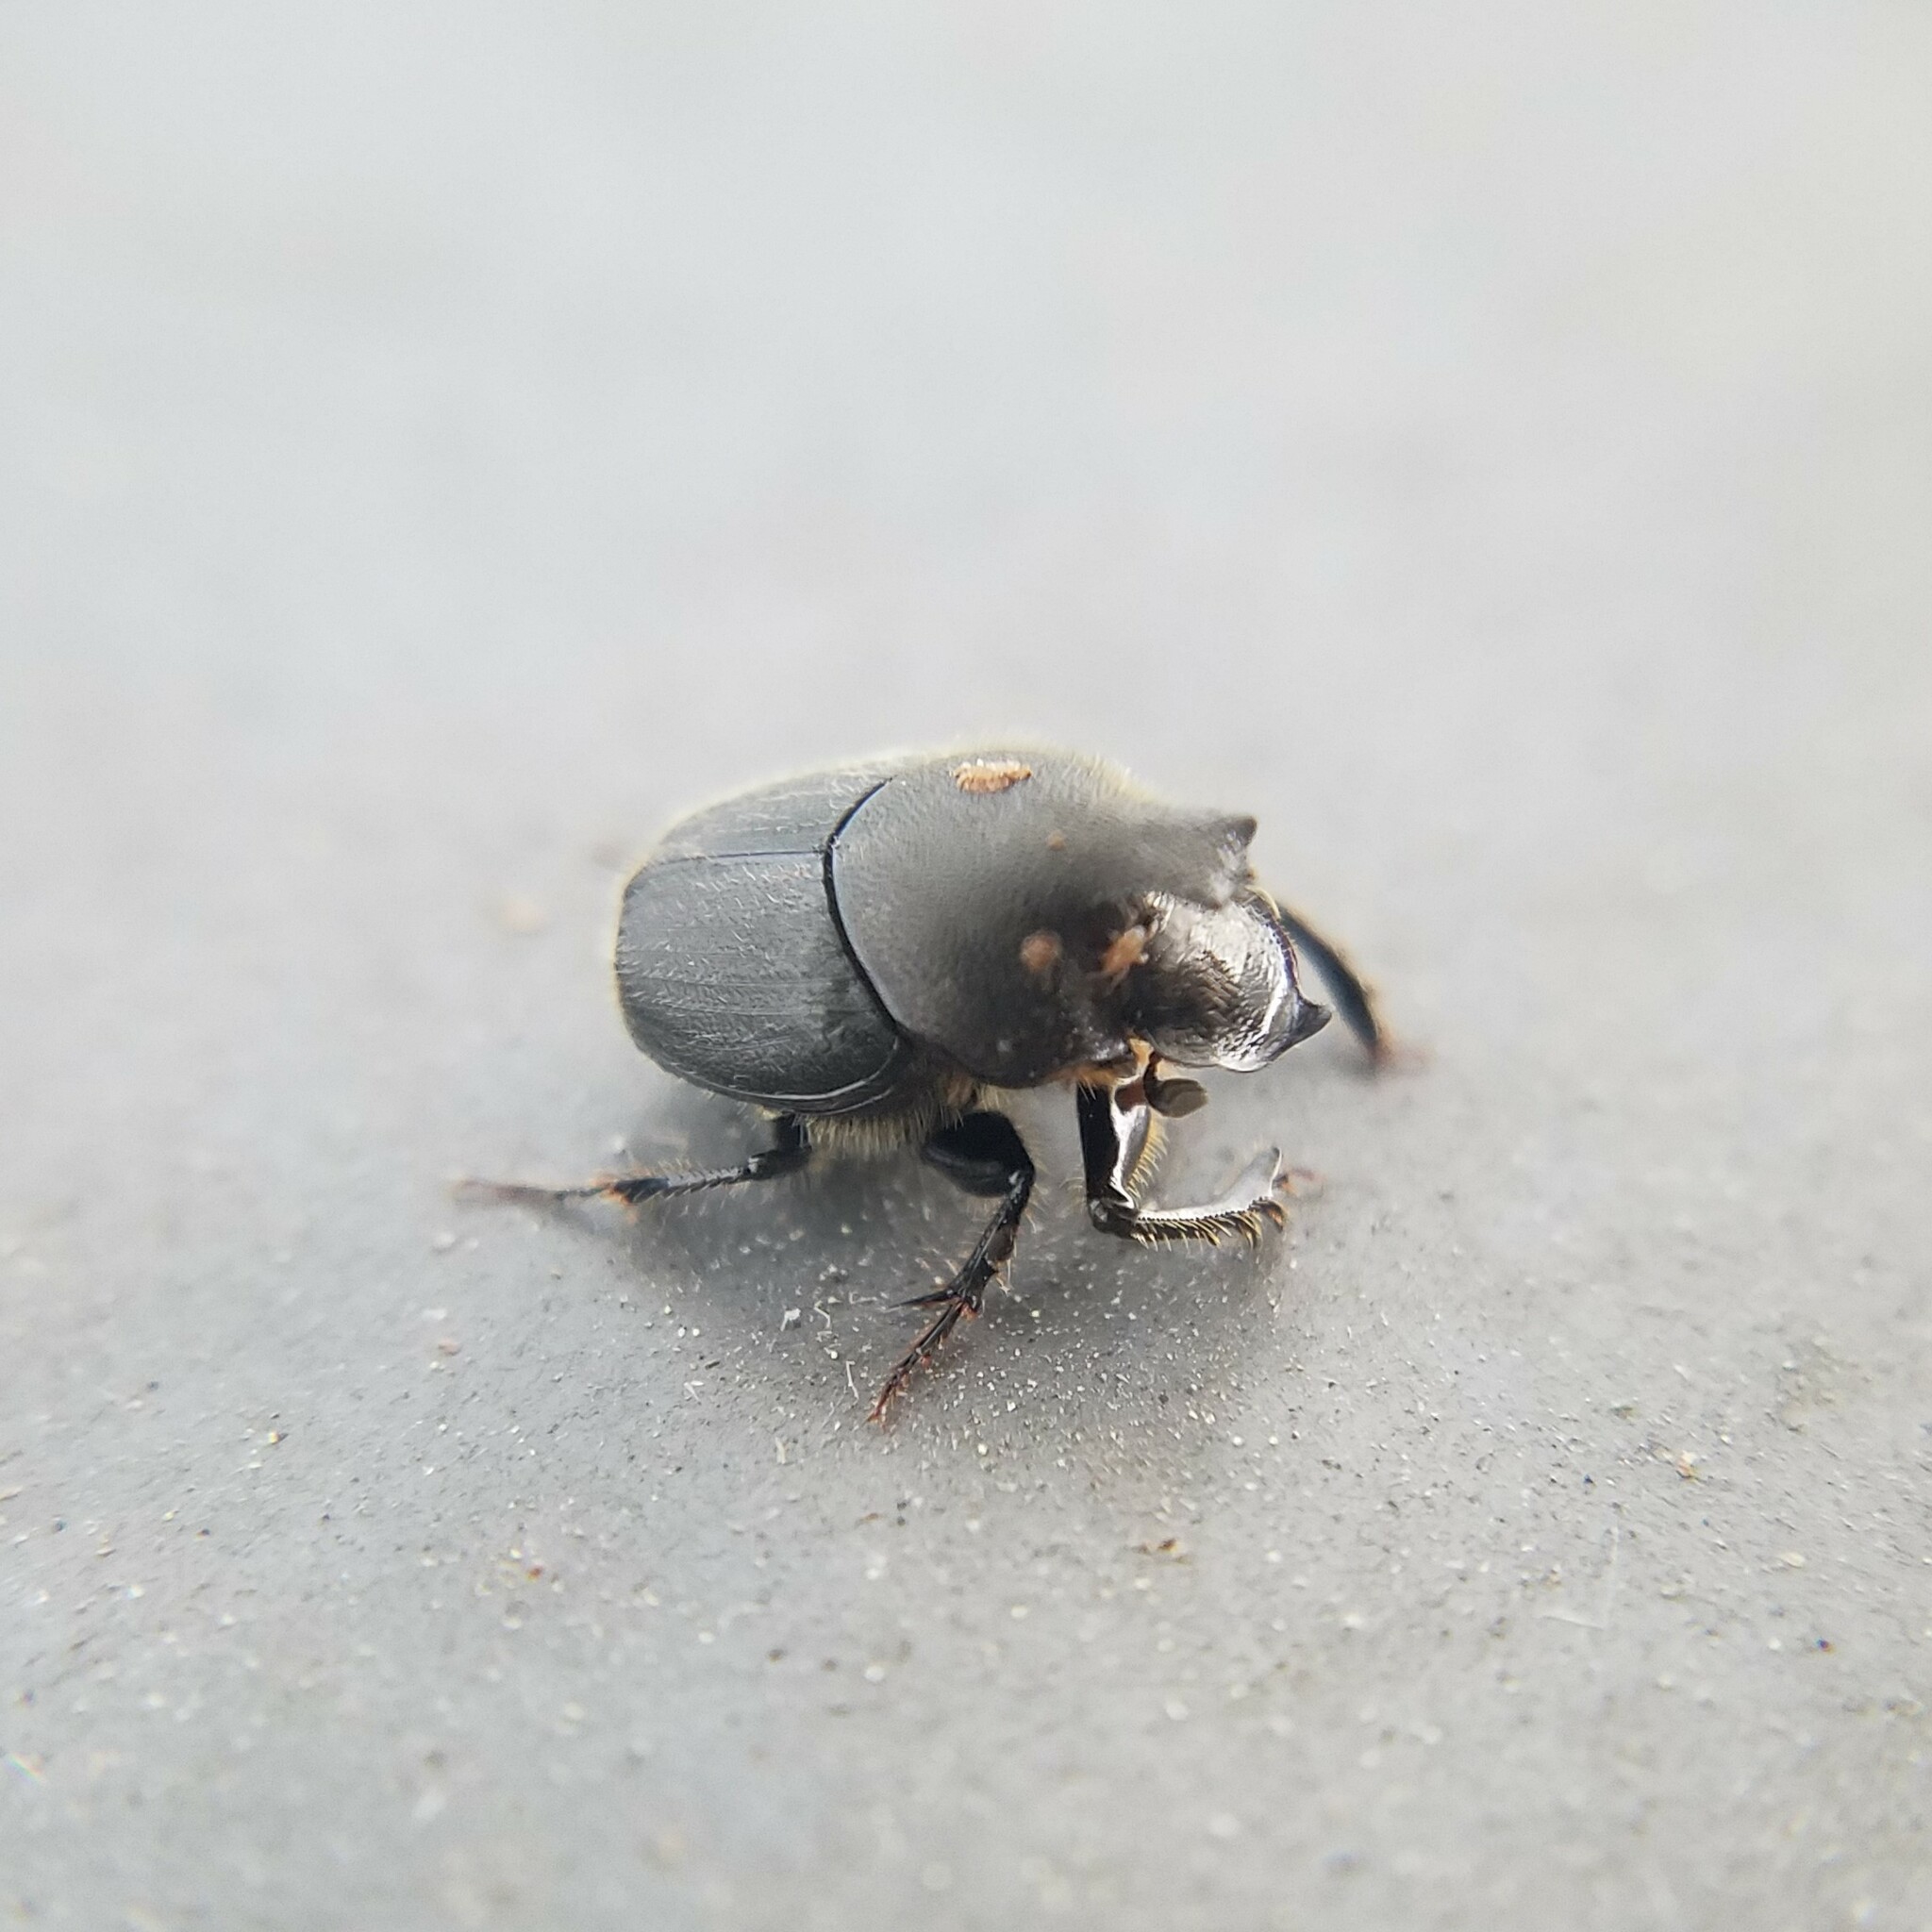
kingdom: Animalia
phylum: Arthropoda
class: Insecta
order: Coleoptera
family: Scarabaeidae
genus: Onthophagus
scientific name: Onthophagus hecate
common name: Scooped scarab
